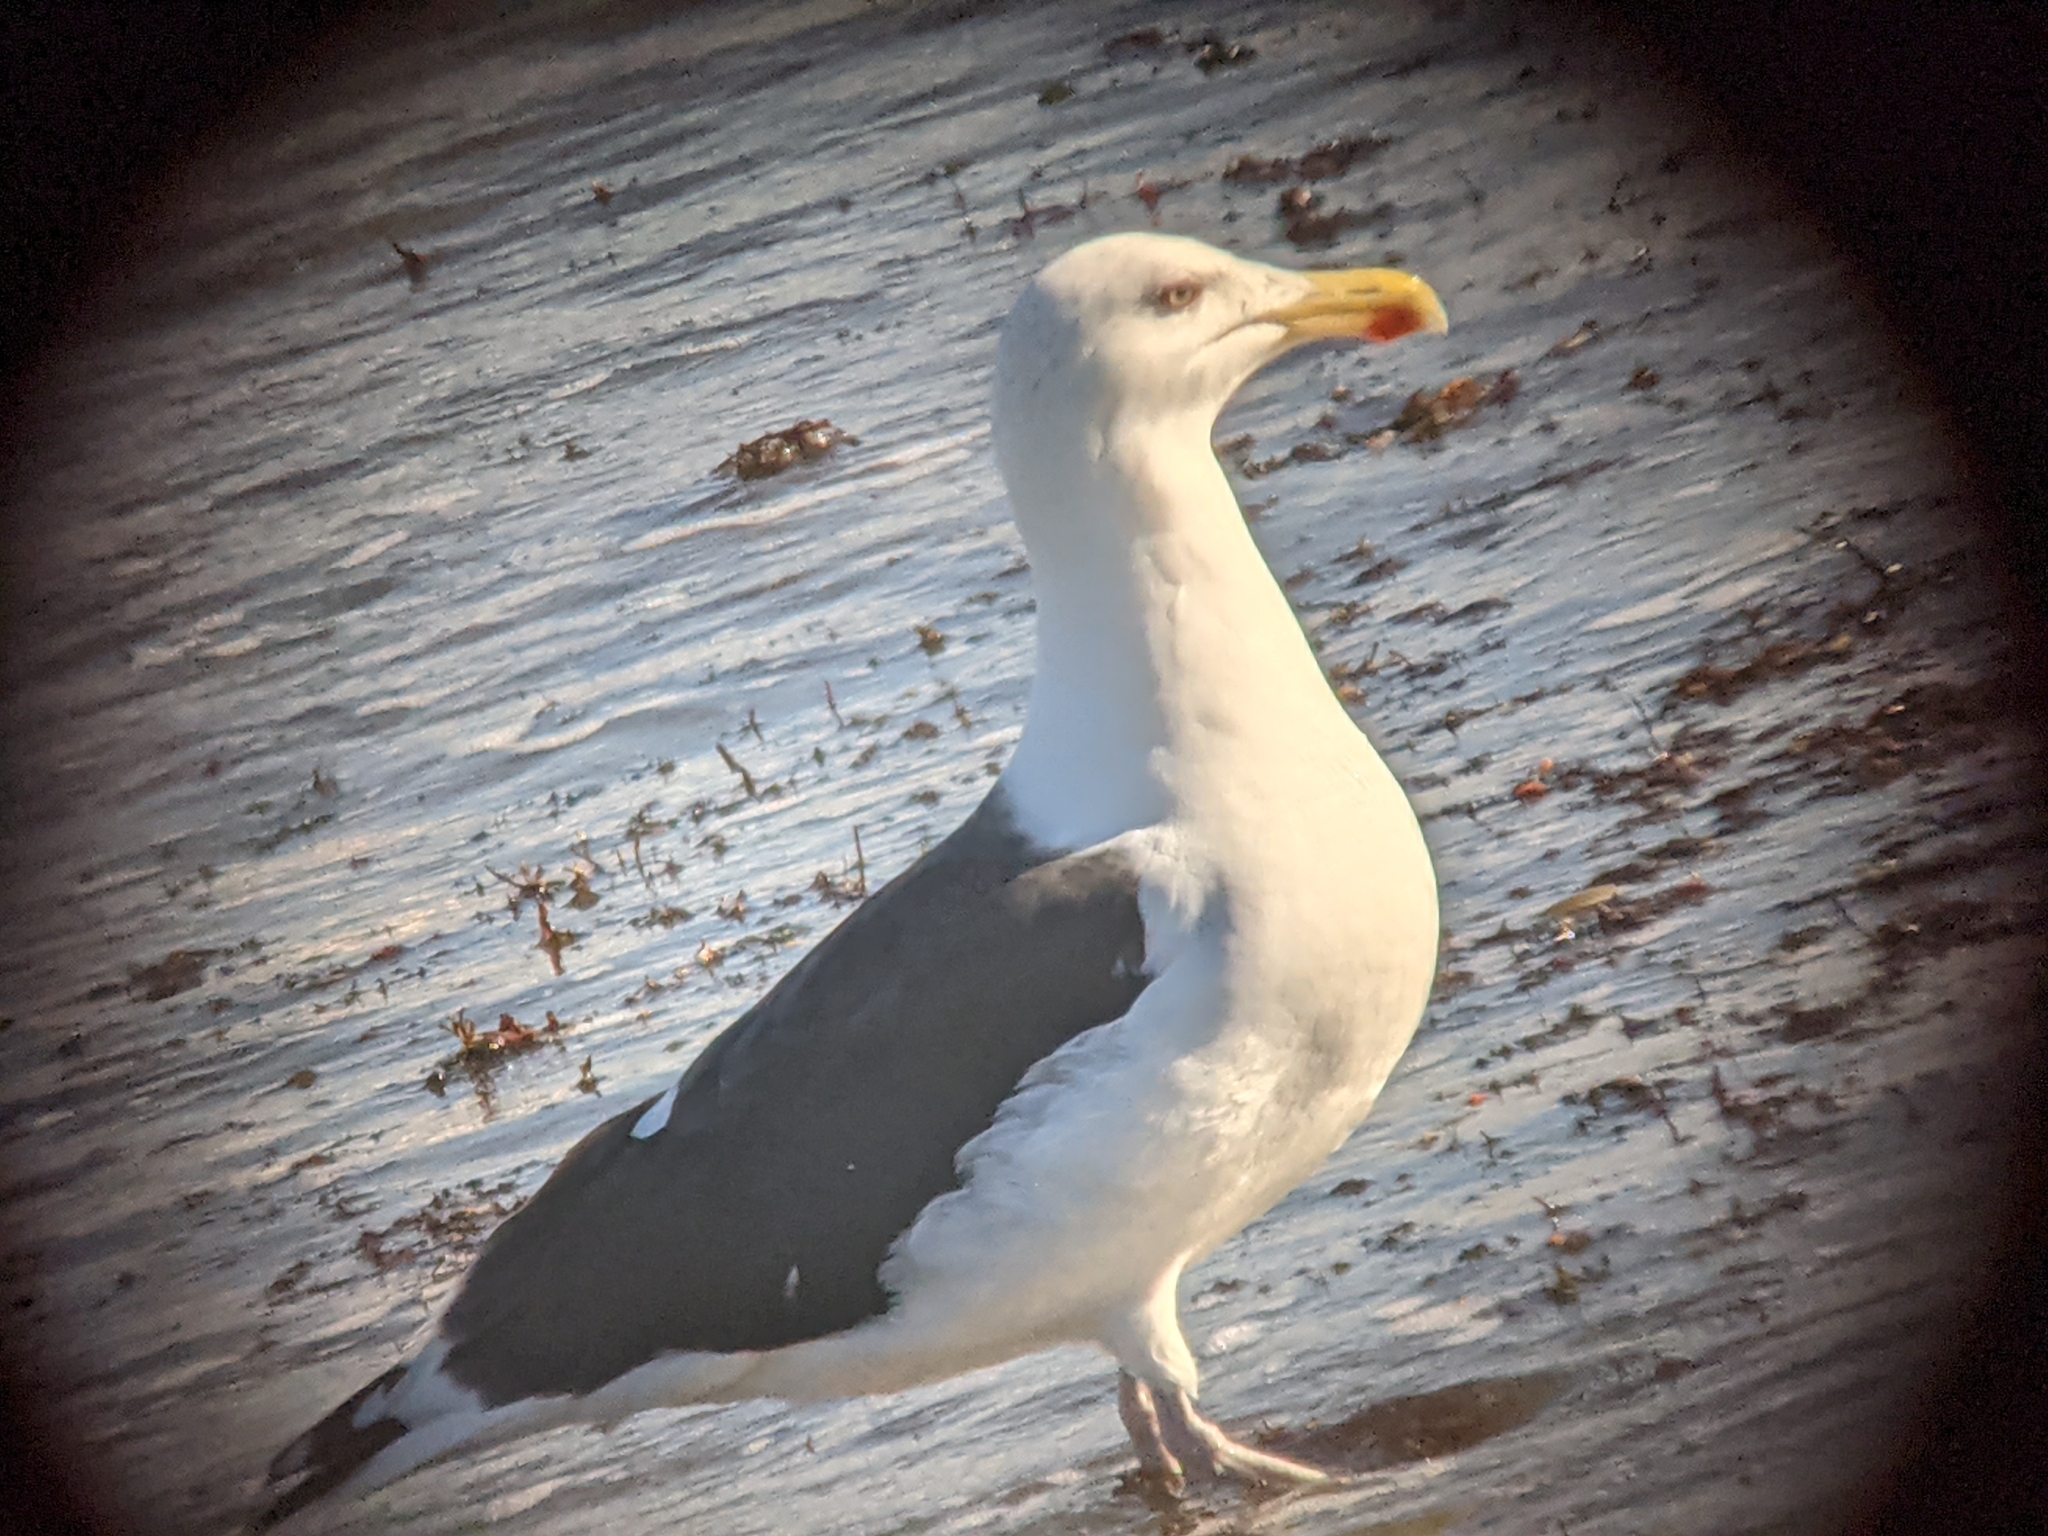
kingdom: Animalia
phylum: Chordata
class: Aves
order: Charadriiformes
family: Laridae
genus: Larus
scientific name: Larus marinus
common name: Great black-backed gull
